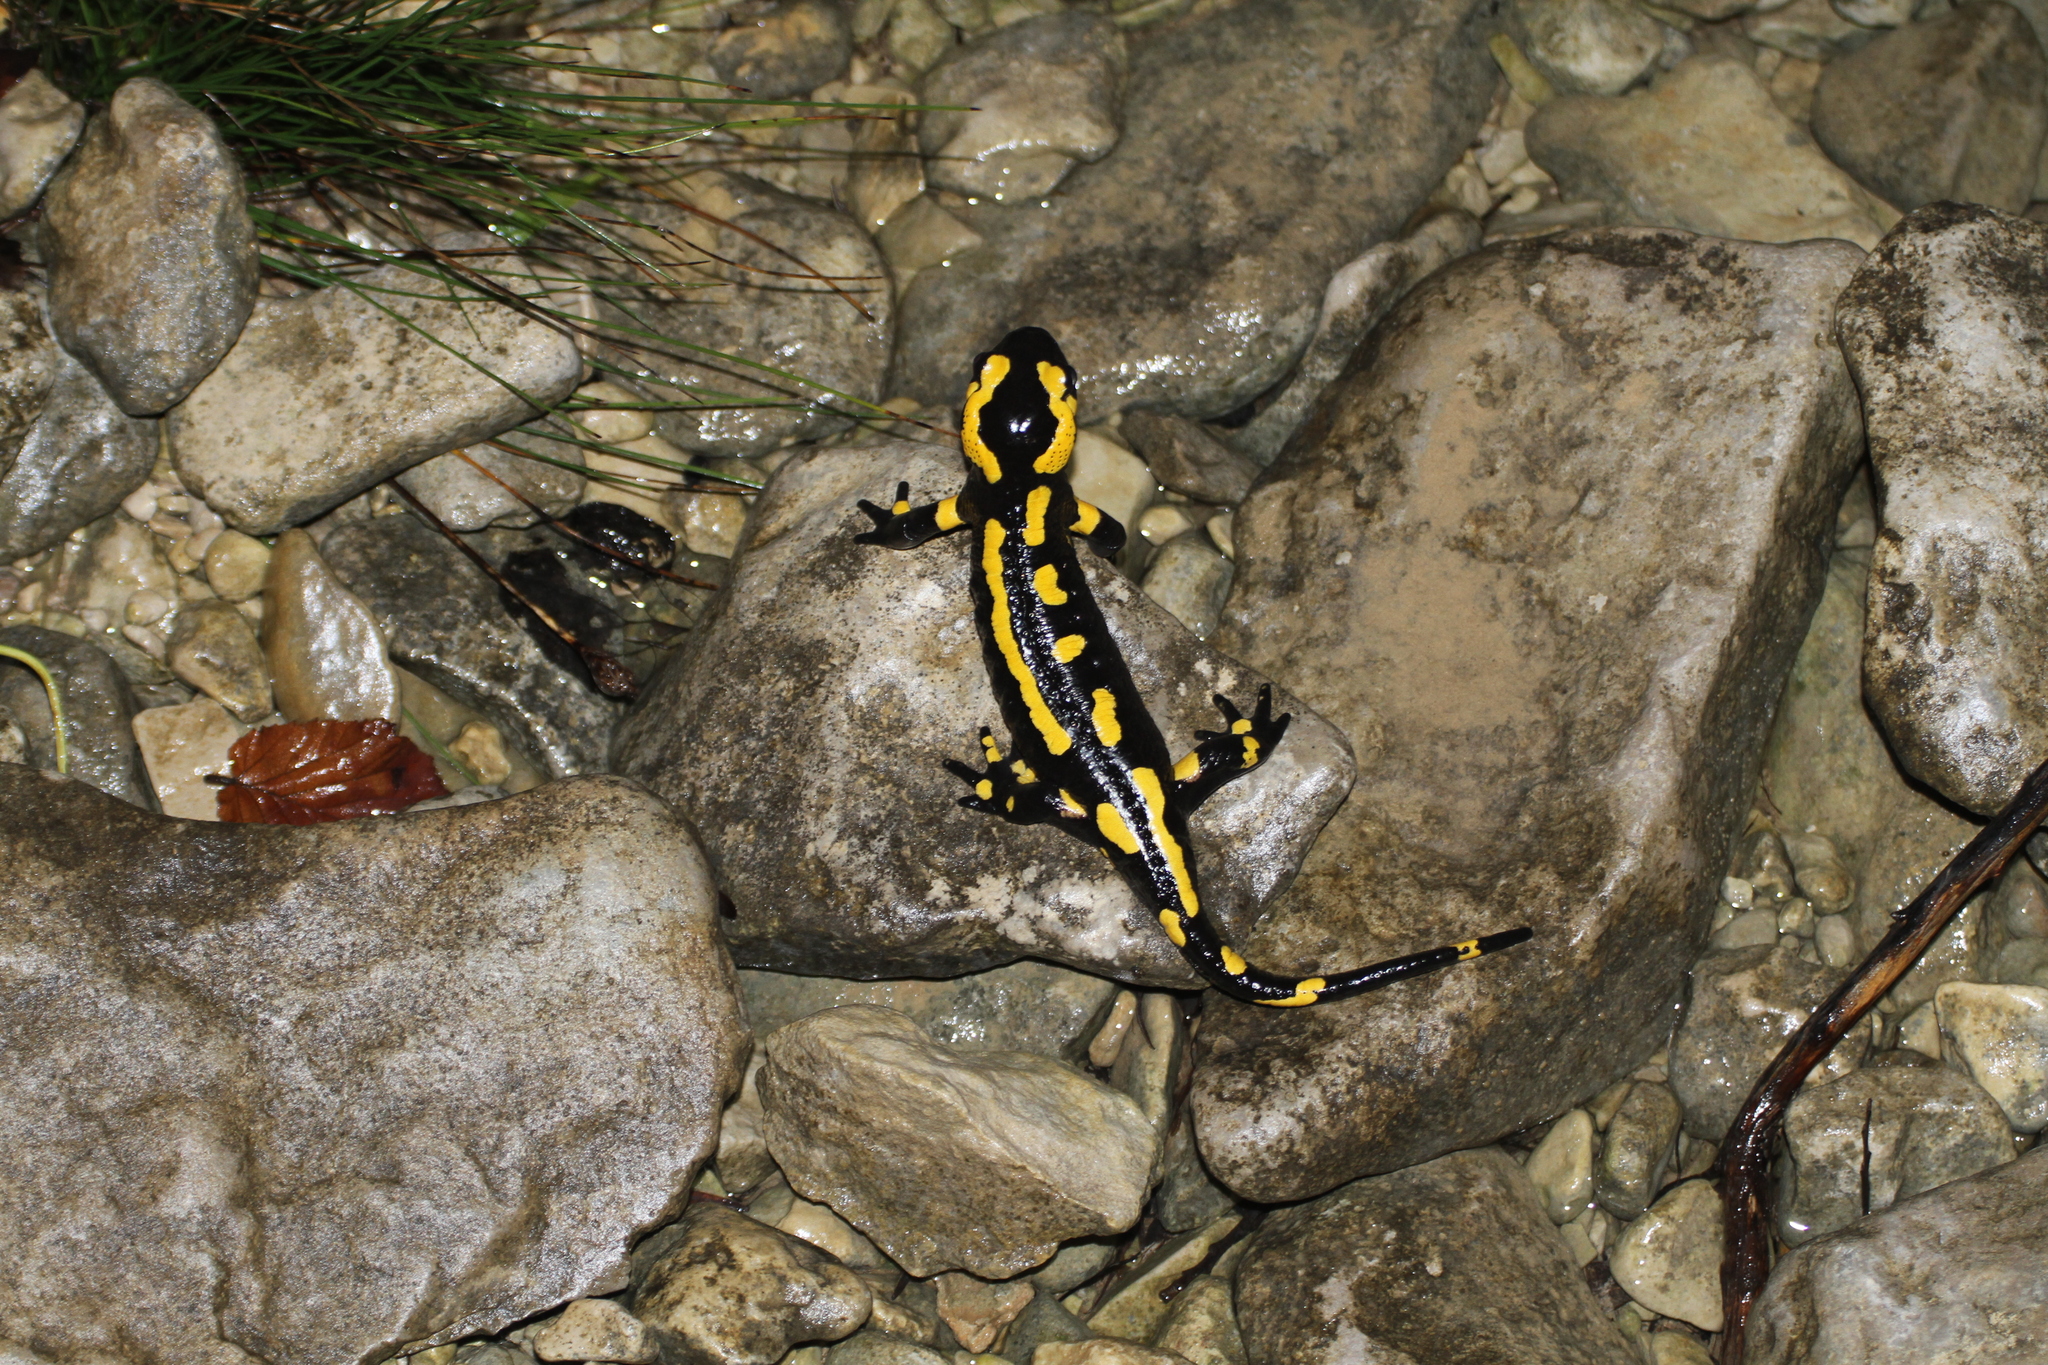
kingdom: Animalia
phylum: Chordata
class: Amphibia
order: Caudata
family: Salamandridae
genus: Salamandra
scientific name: Salamandra salamandra
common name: Fire salamander
